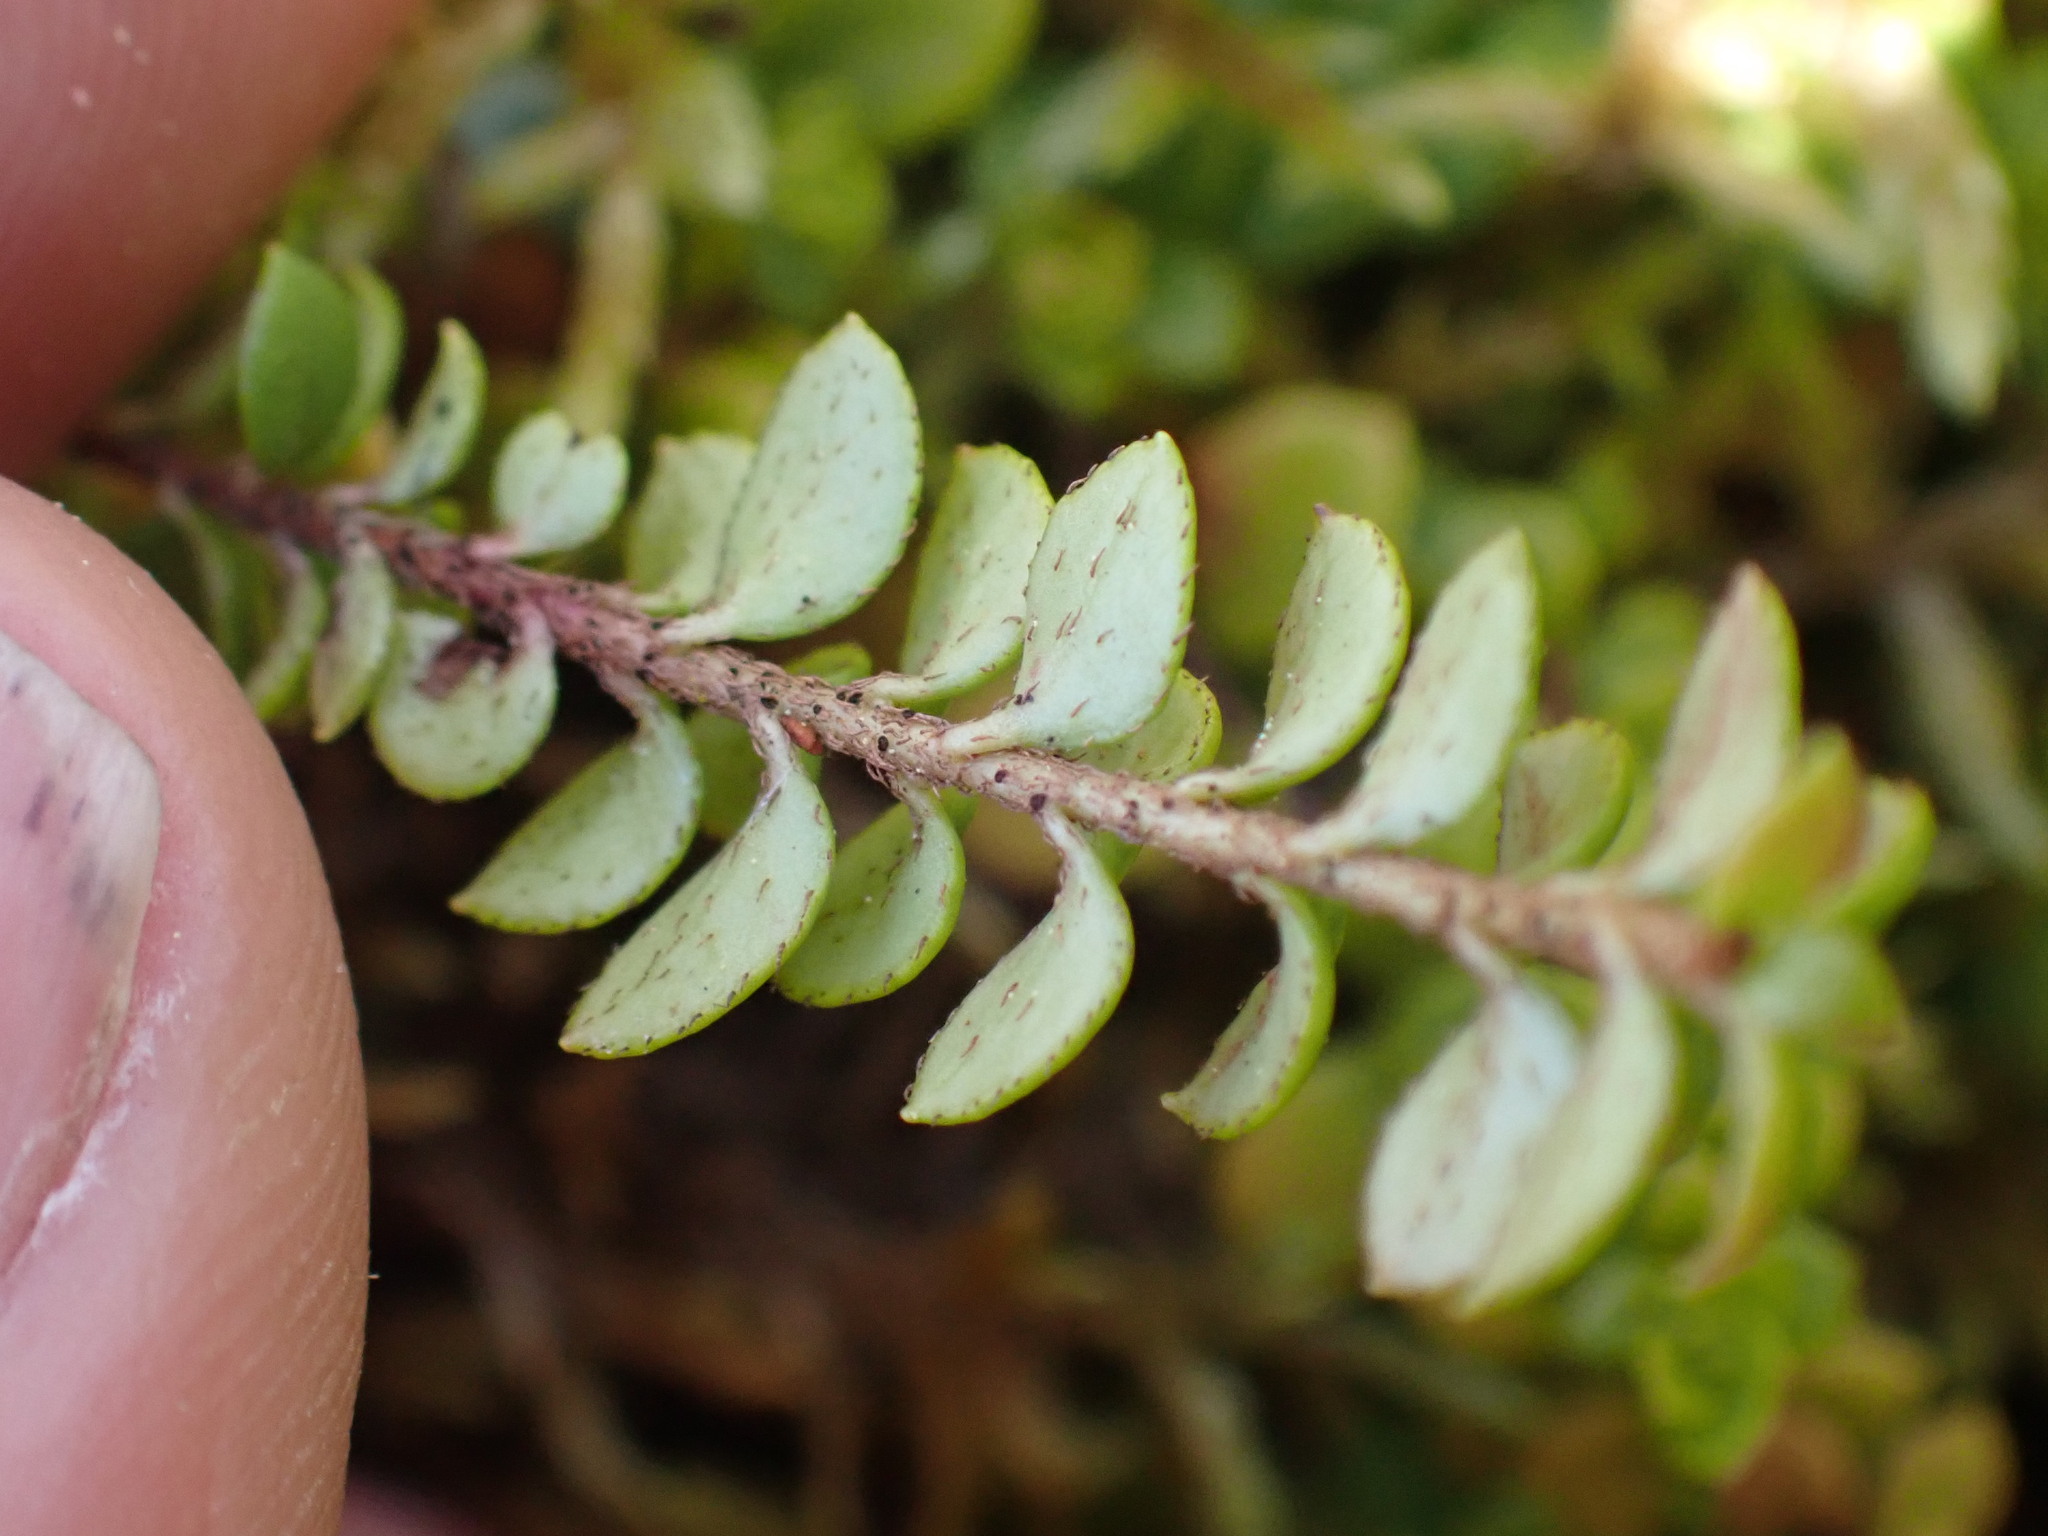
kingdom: Plantae
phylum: Tracheophyta
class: Magnoliopsida
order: Ericales
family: Ericaceae
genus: Gaultheria
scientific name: Gaultheria hispidula
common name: Cancer wintergreen
